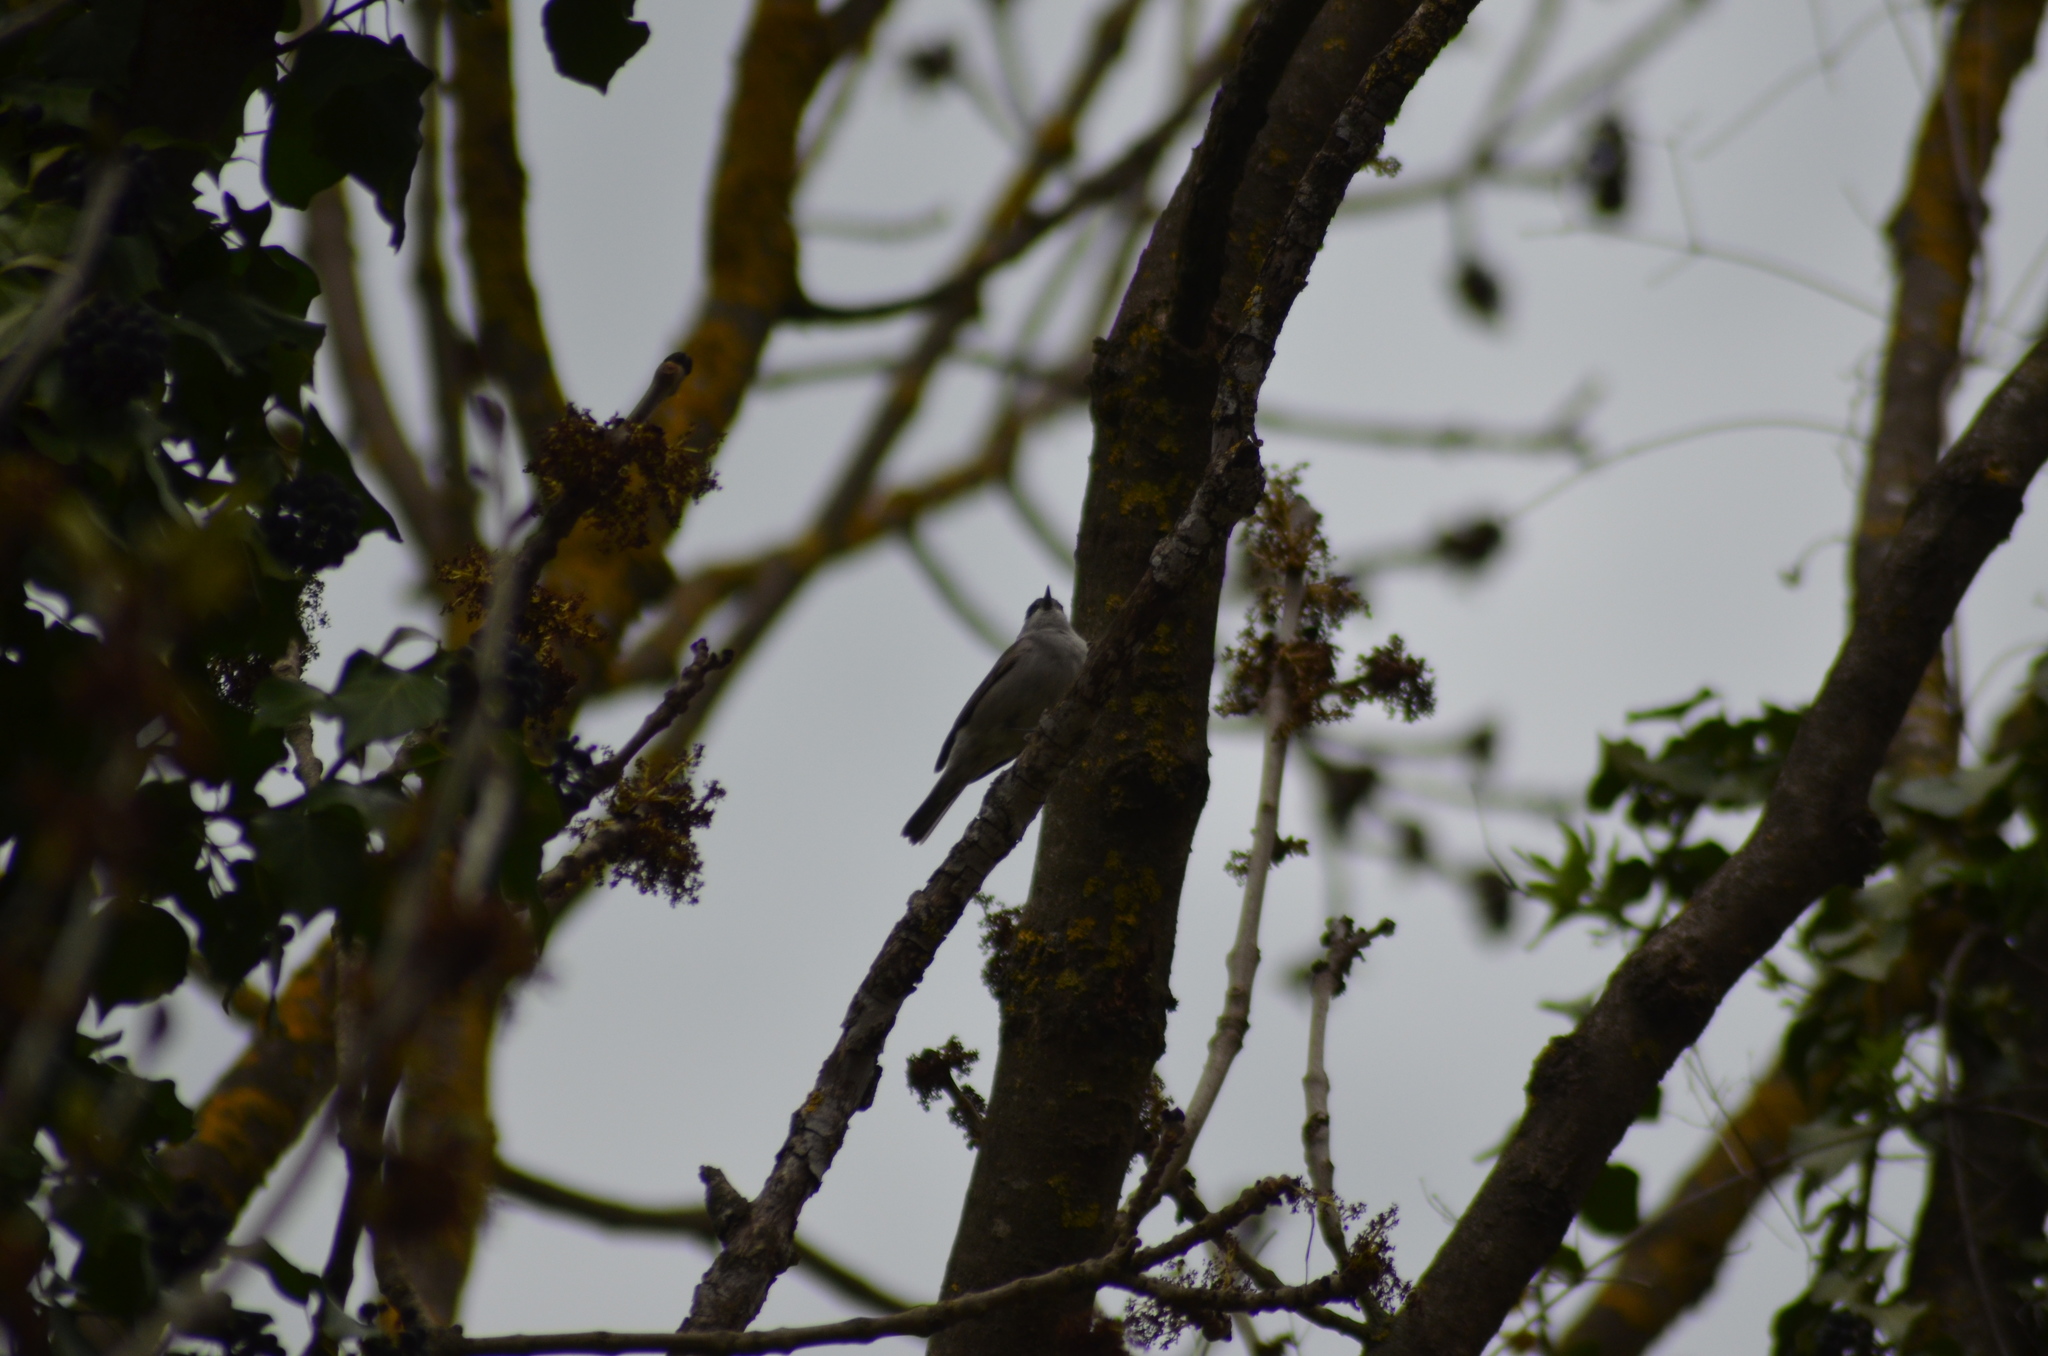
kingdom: Animalia
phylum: Chordata
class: Aves
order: Passeriformes
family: Sylviidae
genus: Sylvia
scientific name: Sylvia atricapilla
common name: Eurasian blackcap
